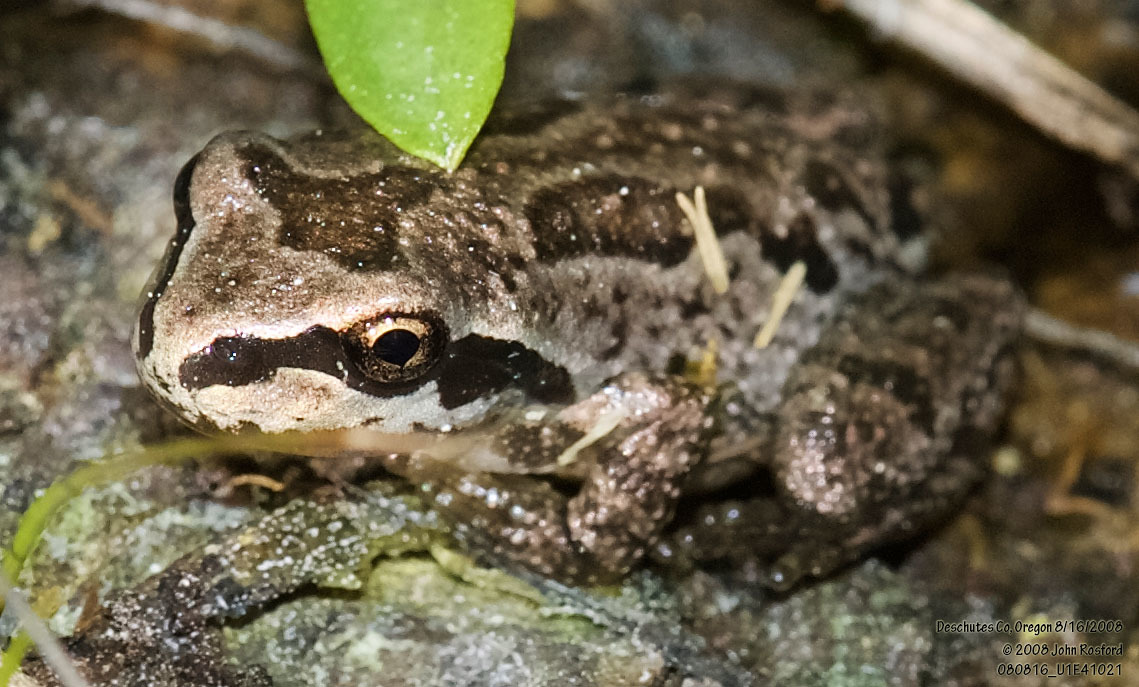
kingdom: Animalia
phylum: Chordata
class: Amphibia
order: Anura
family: Hylidae
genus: Pseudacris
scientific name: Pseudacris regilla
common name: Pacific chorus frog
